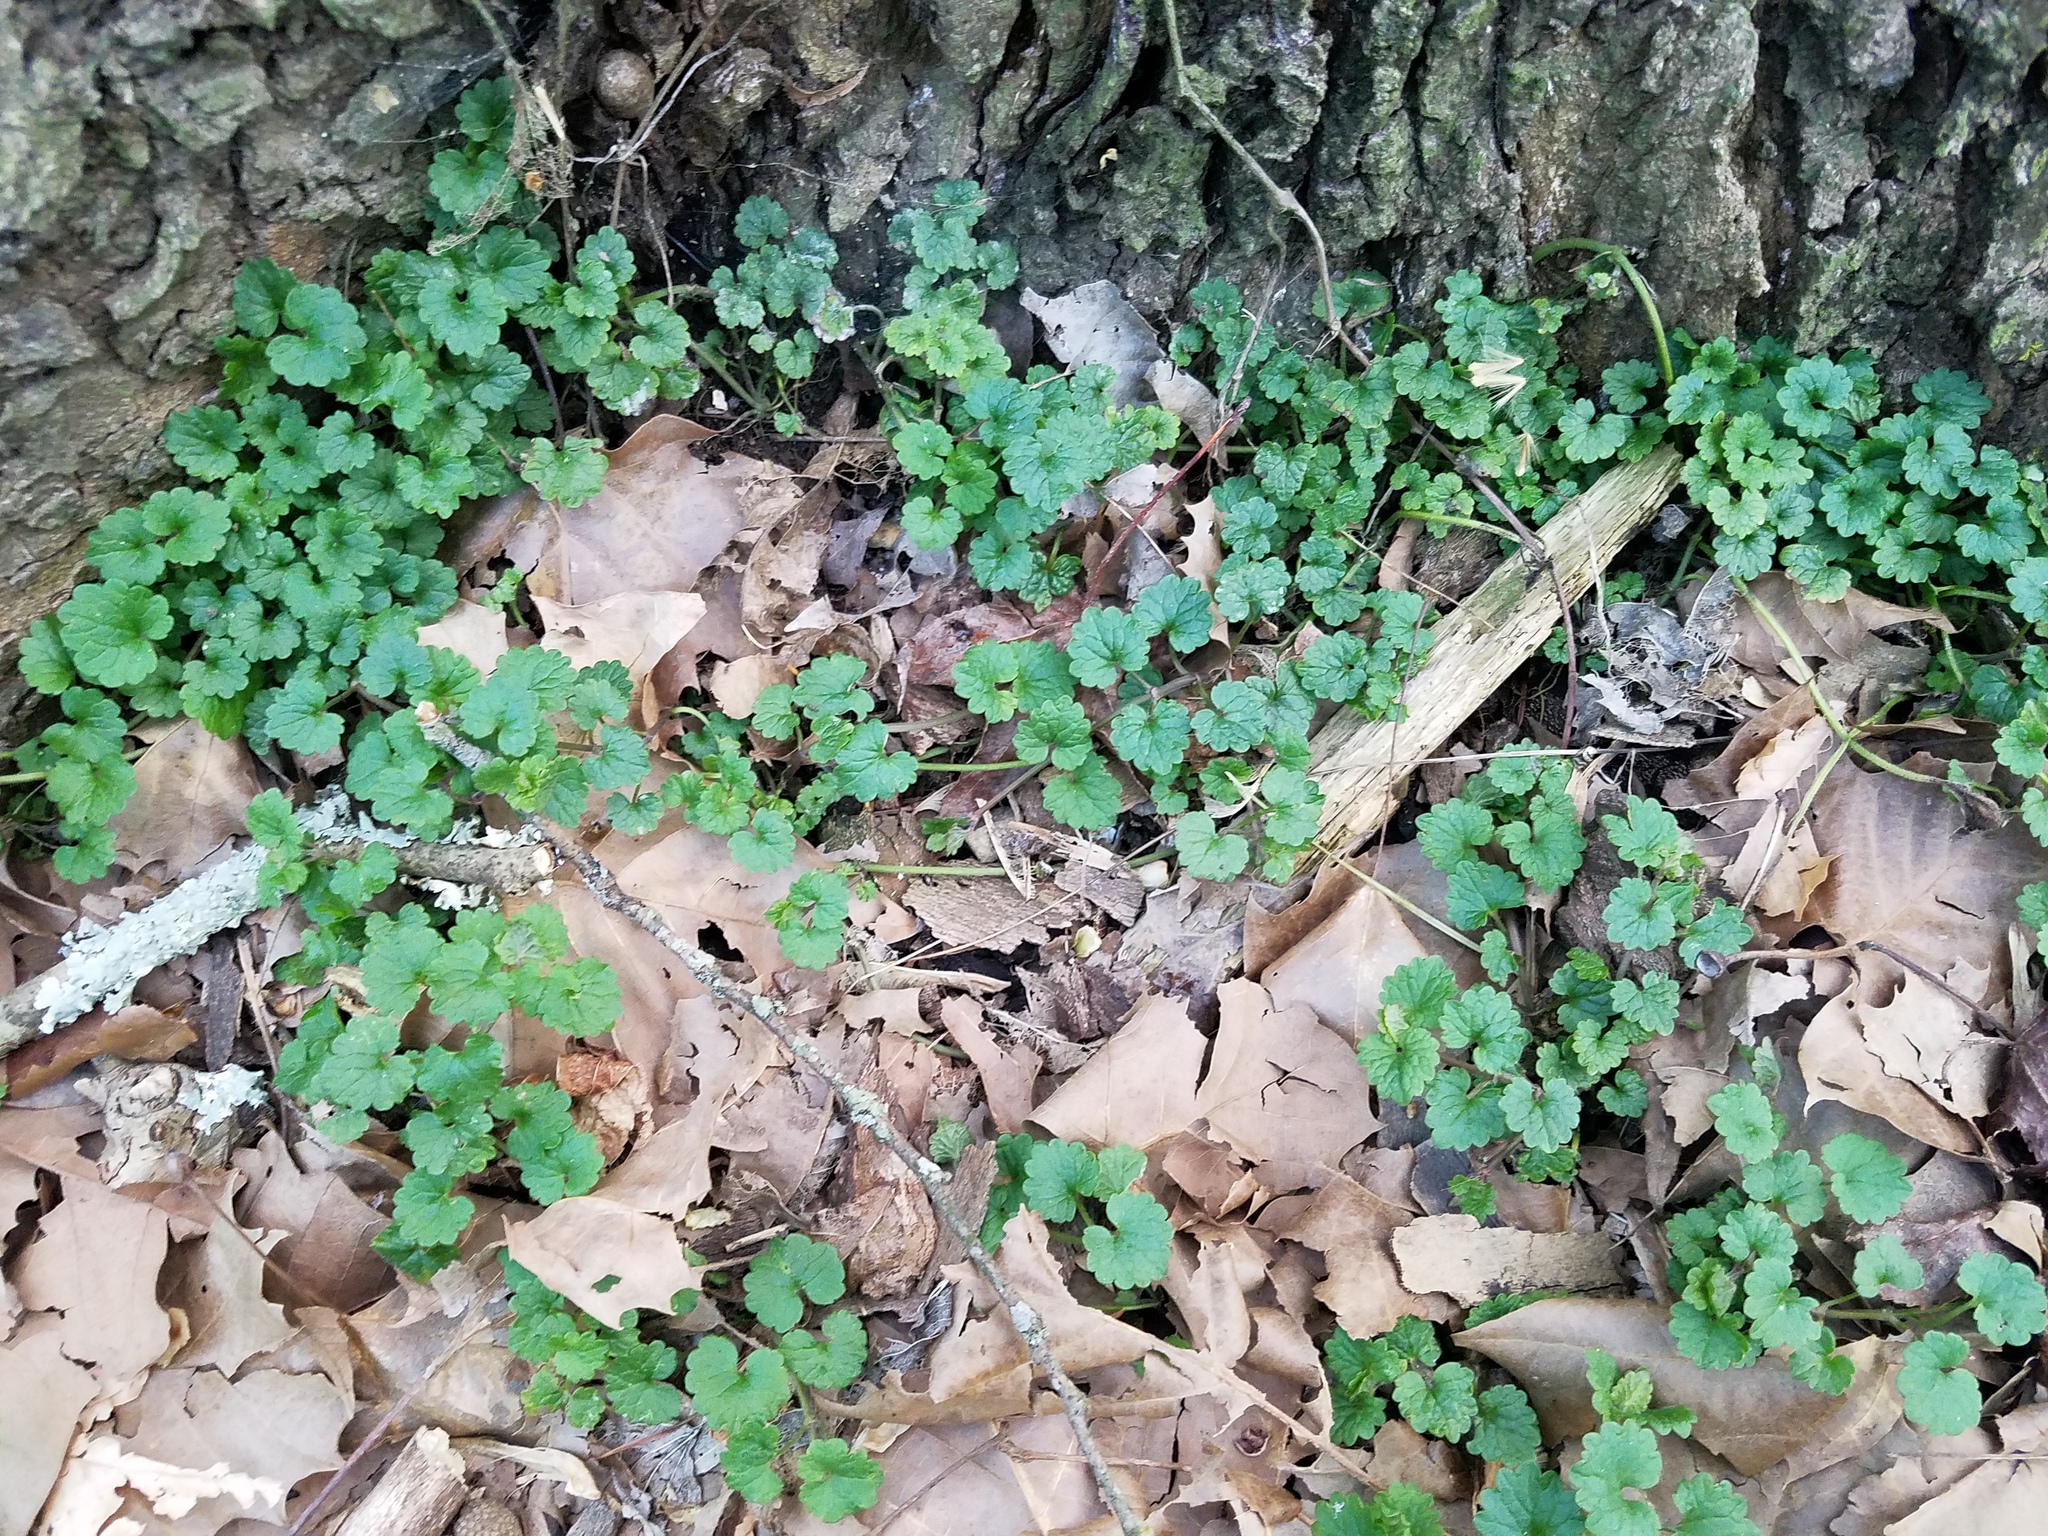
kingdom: Plantae
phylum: Tracheophyta
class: Magnoliopsida
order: Lamiales
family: Lamiaceae
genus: Glechoma
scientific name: Glechoma hederacea
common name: Ground ivy
